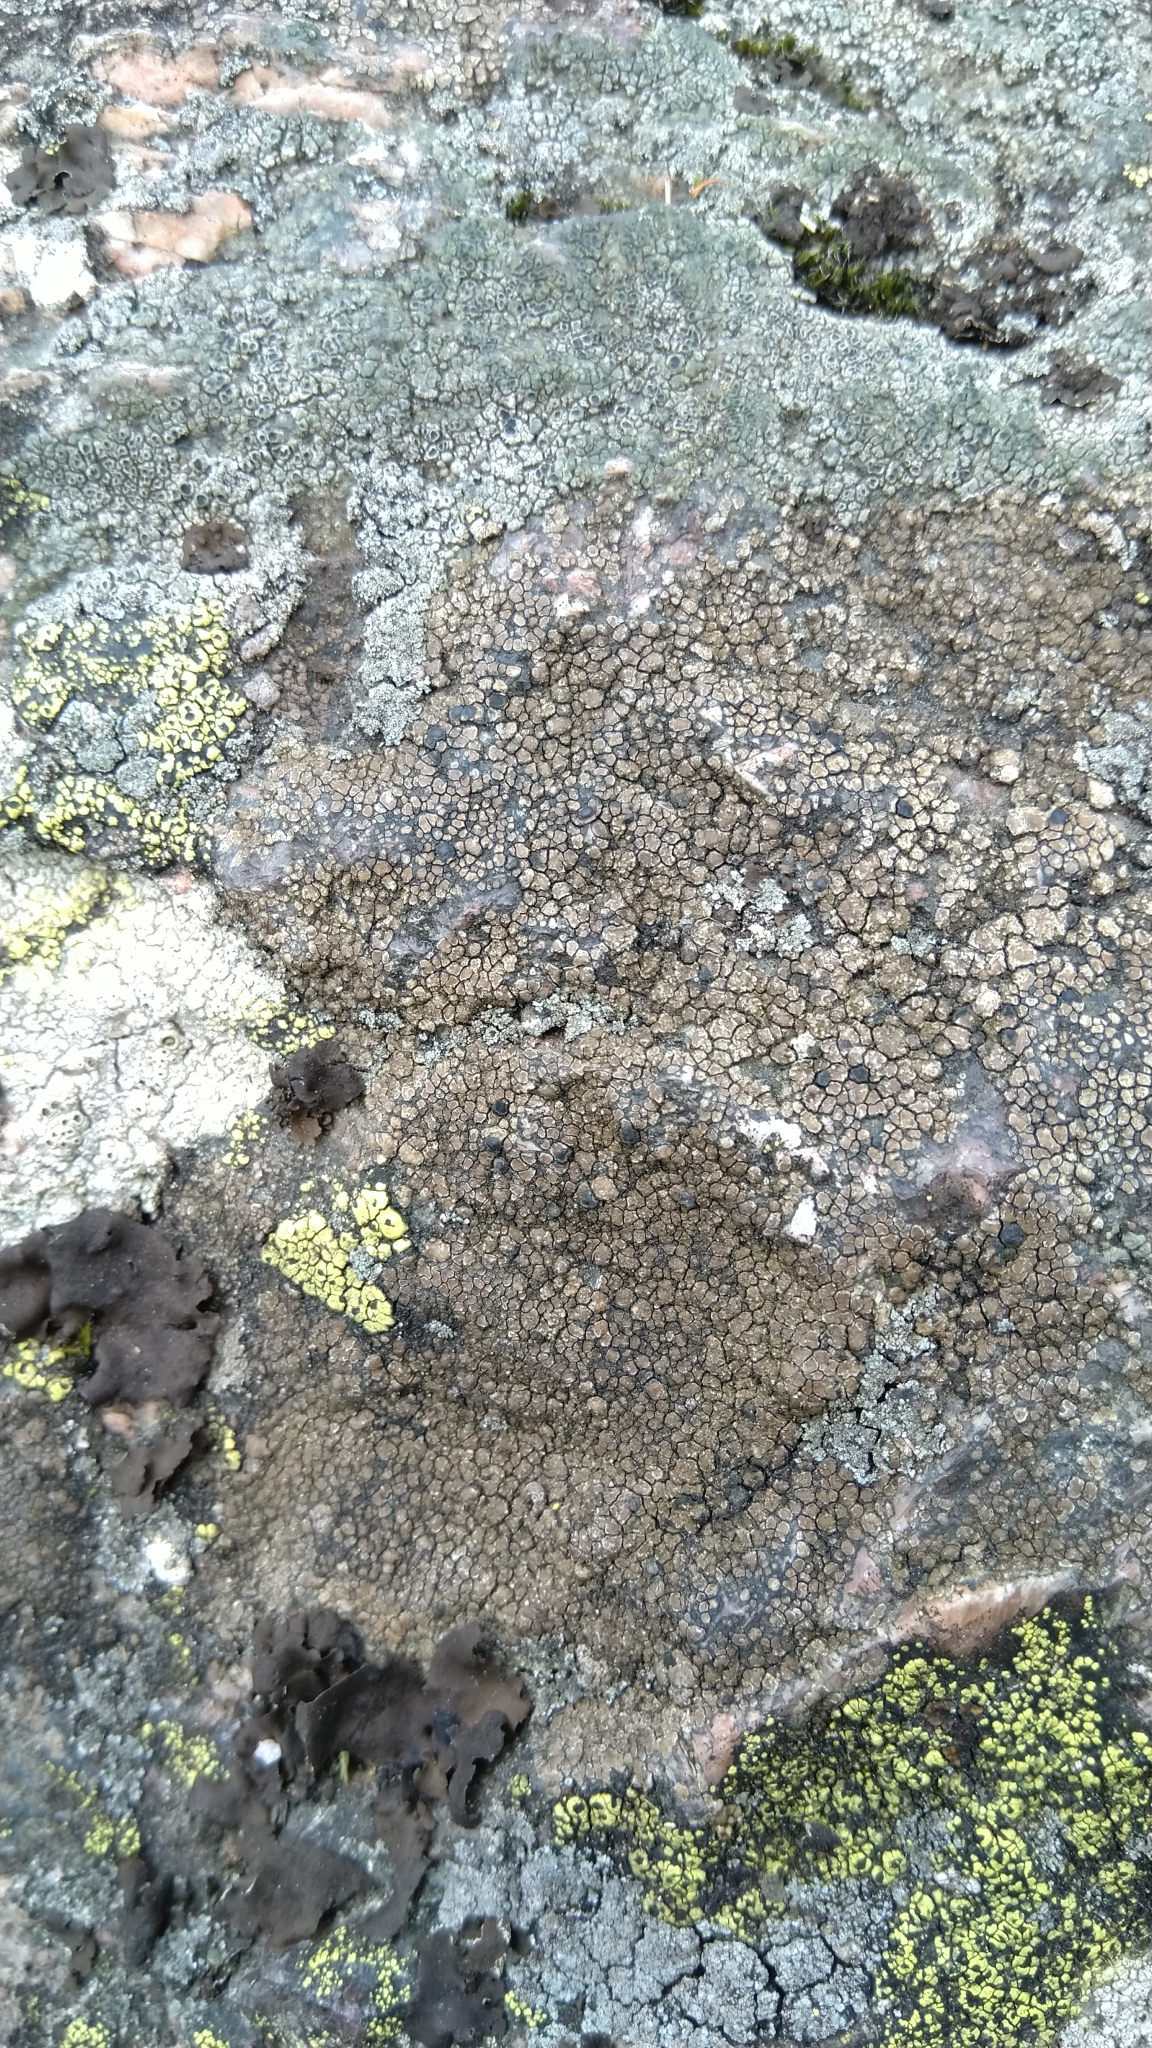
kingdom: Fungi
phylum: Ascomycota
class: Lecanoromycetes
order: Lecideales
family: Lecideaceae
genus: Lecidea
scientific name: Lecidea fuscoatra
